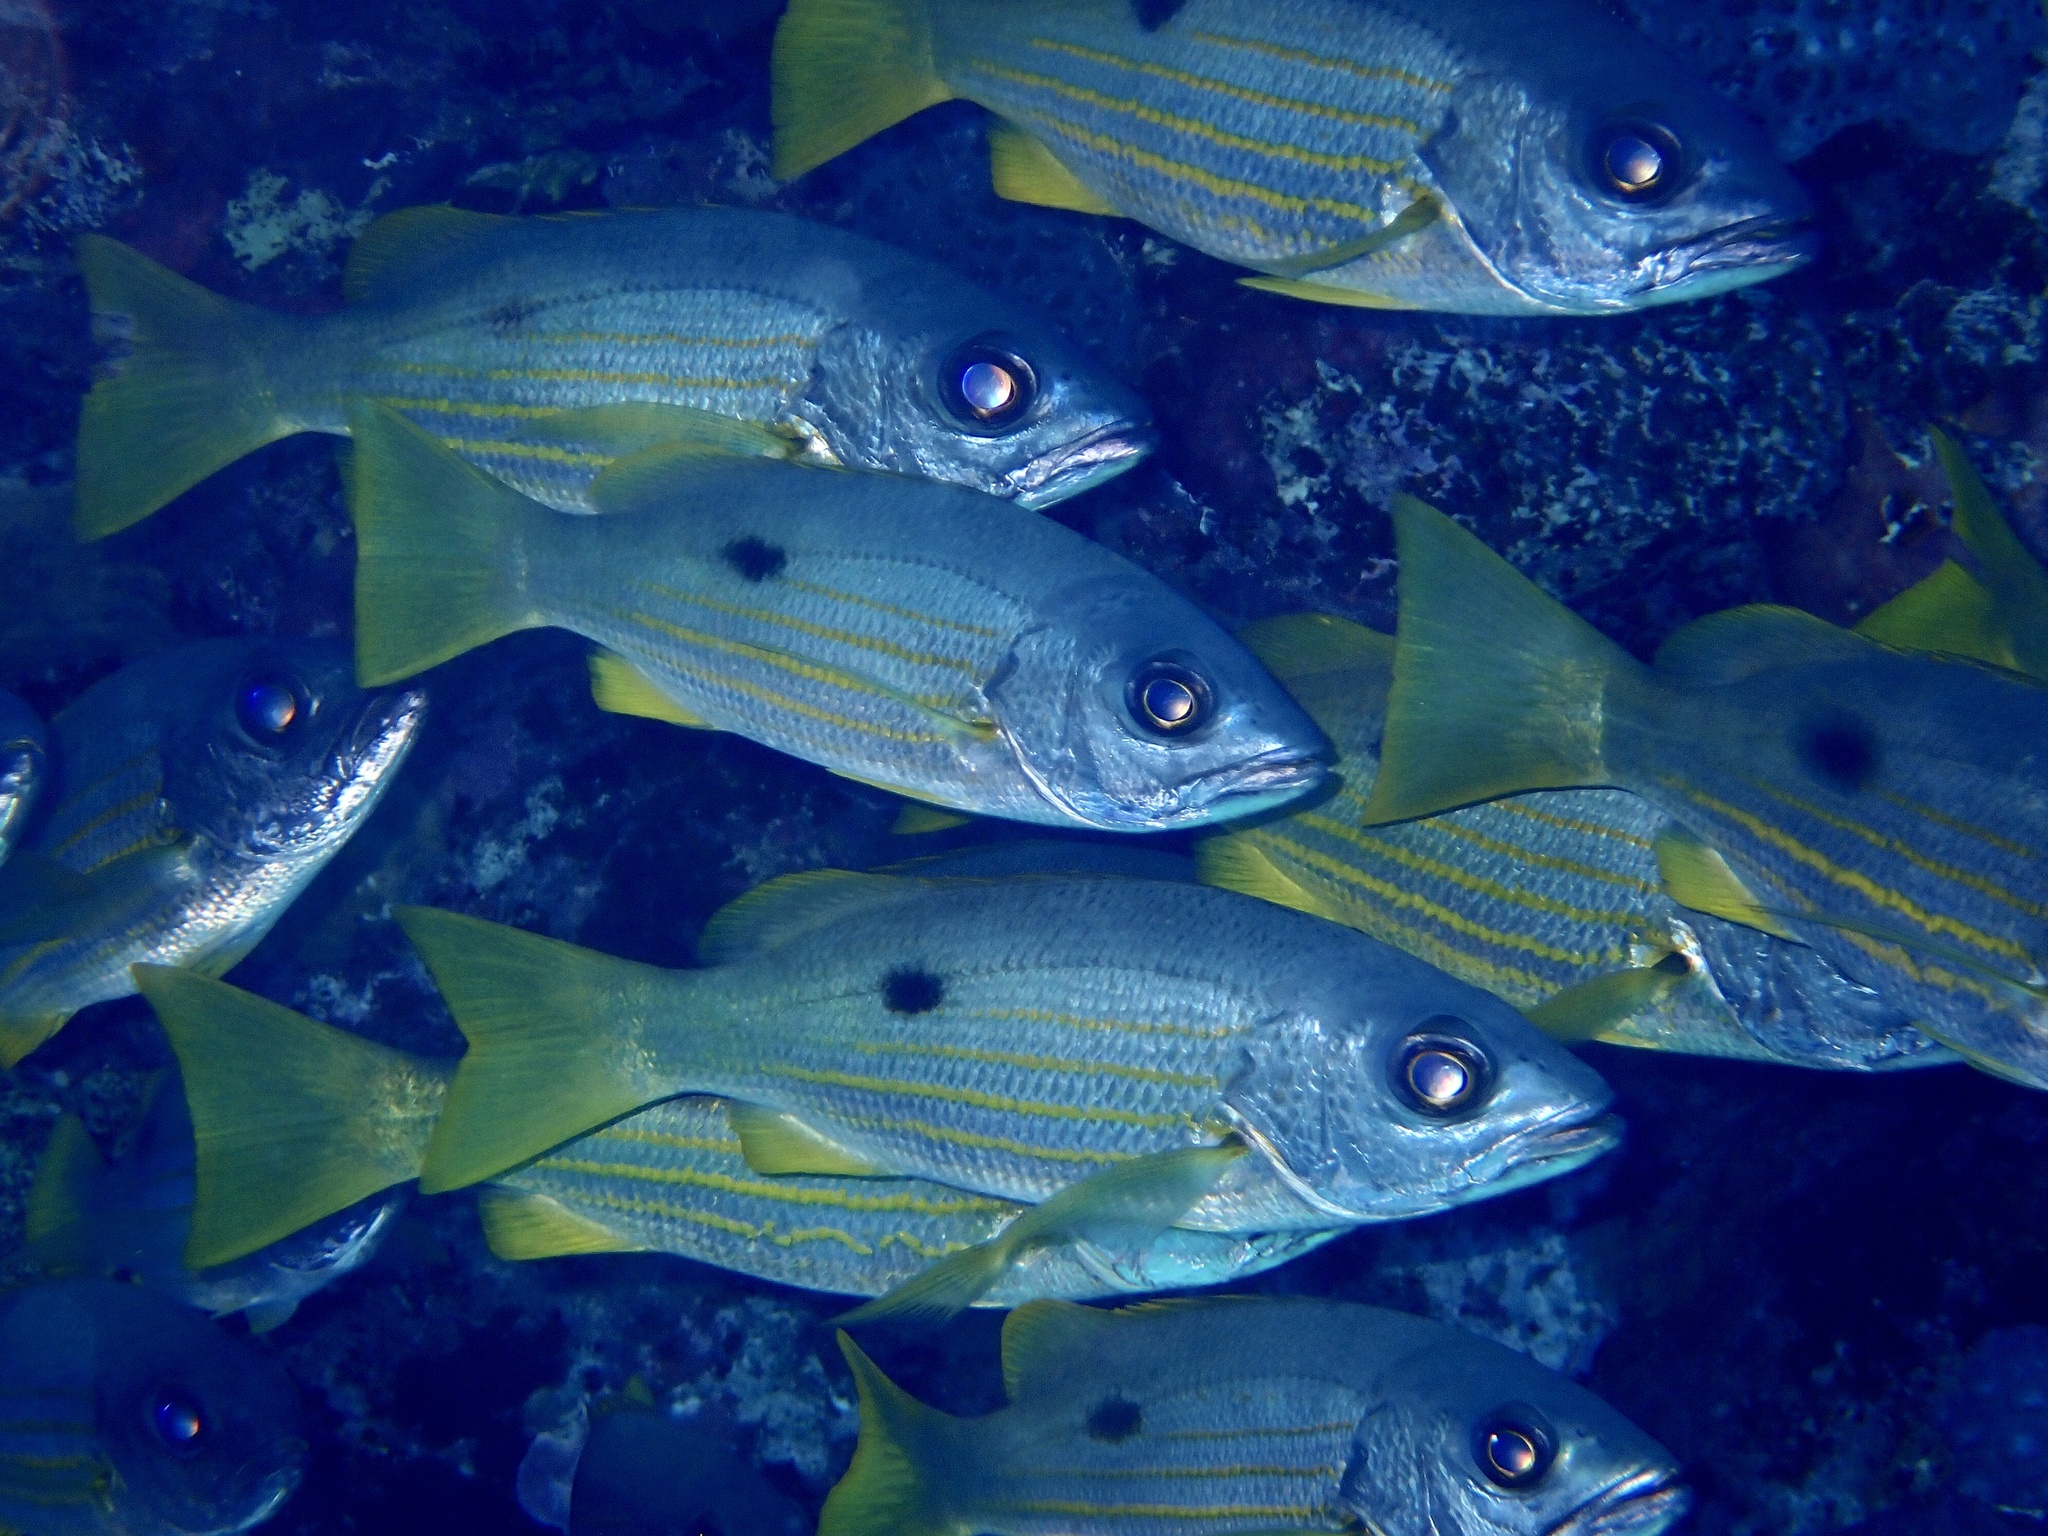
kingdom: Animalia
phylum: Chordata
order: Perciformes
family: Lutjanidae
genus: Lutjanus
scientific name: Lutjanus ehrenbergii
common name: Blackspot snapper
